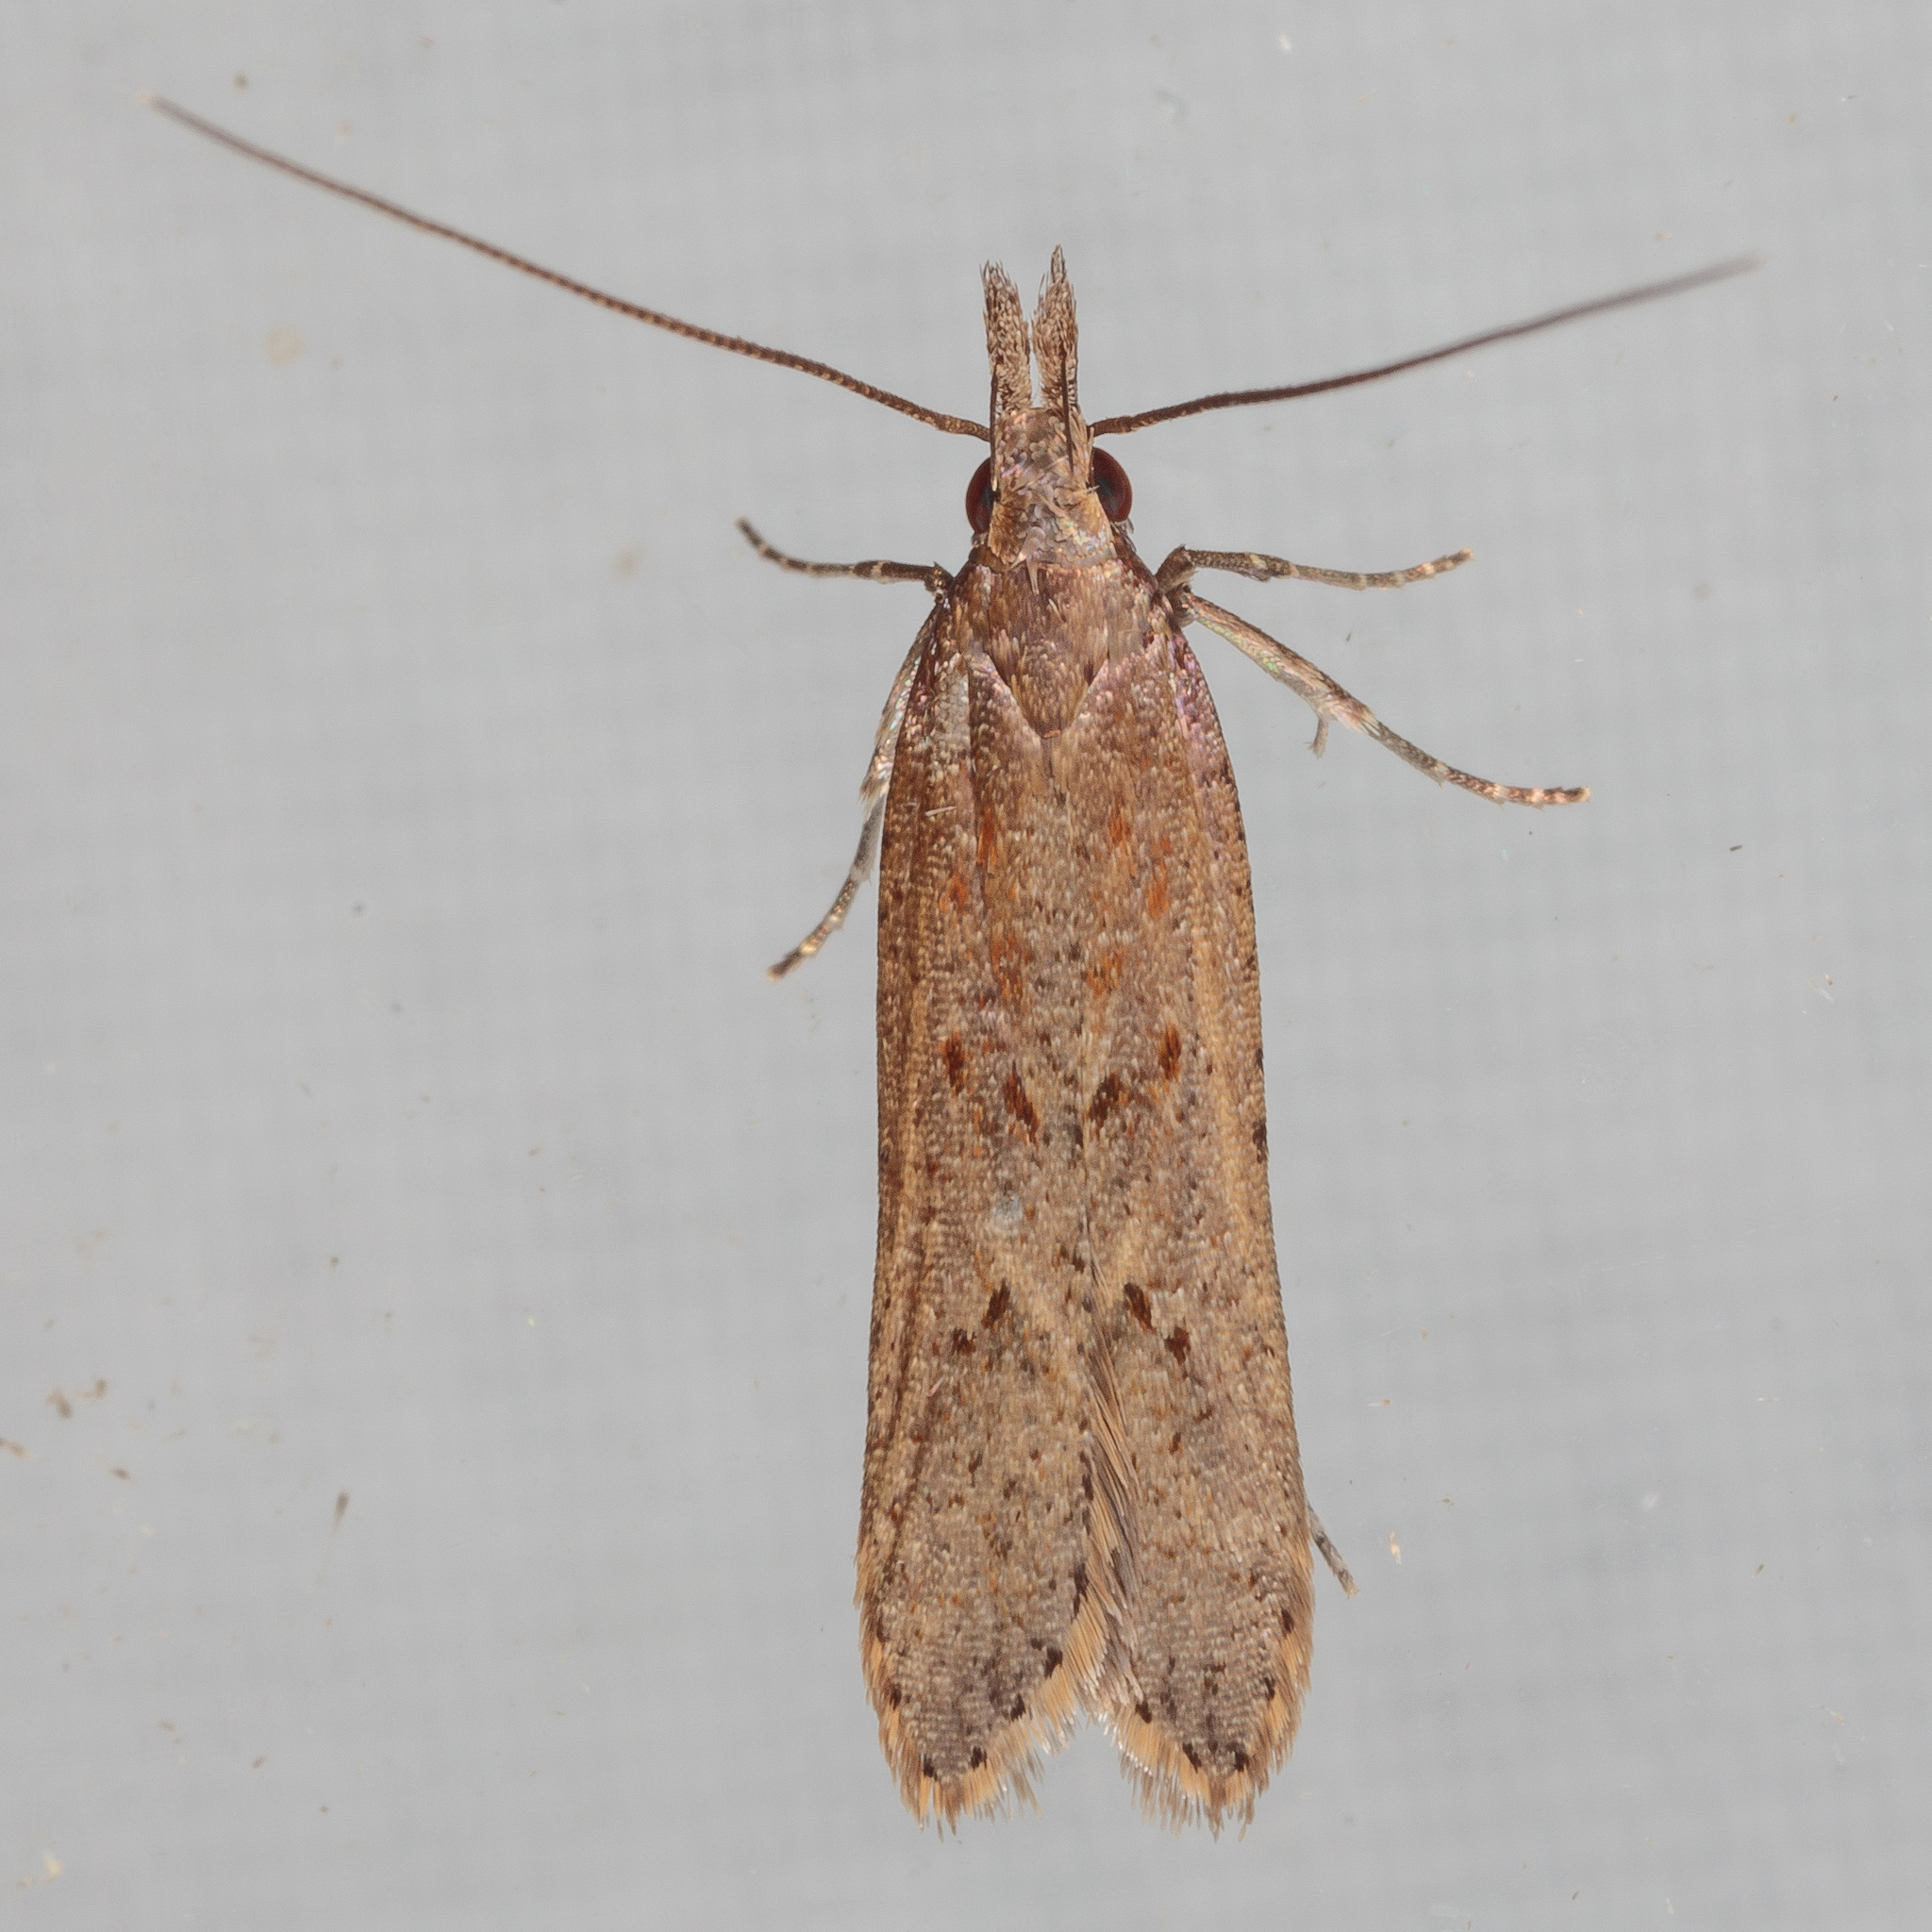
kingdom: Animalia
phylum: Arthropoda
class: Insecta
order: Lepidoptera
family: Gelechiidae
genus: Dichomeris
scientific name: Dichomeris ligulella
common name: Moth
